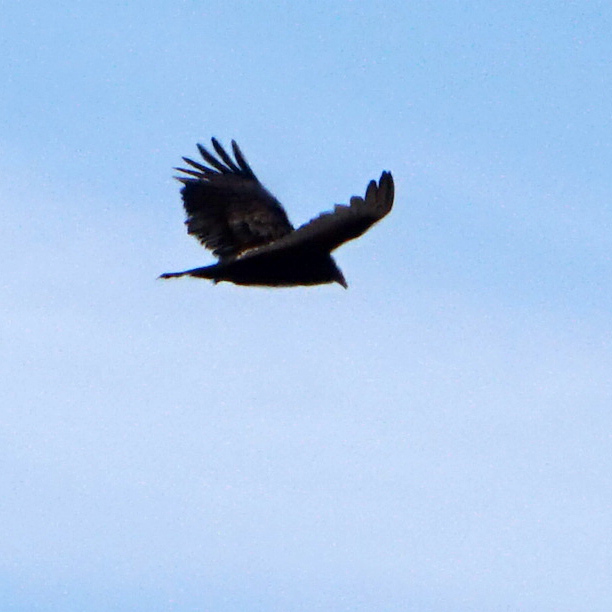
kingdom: Animalia
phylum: Chordata
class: Aves
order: Accipitriformes
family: Cathartidae
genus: Cathartes
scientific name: Cathartes aura
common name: Turkey vulture
